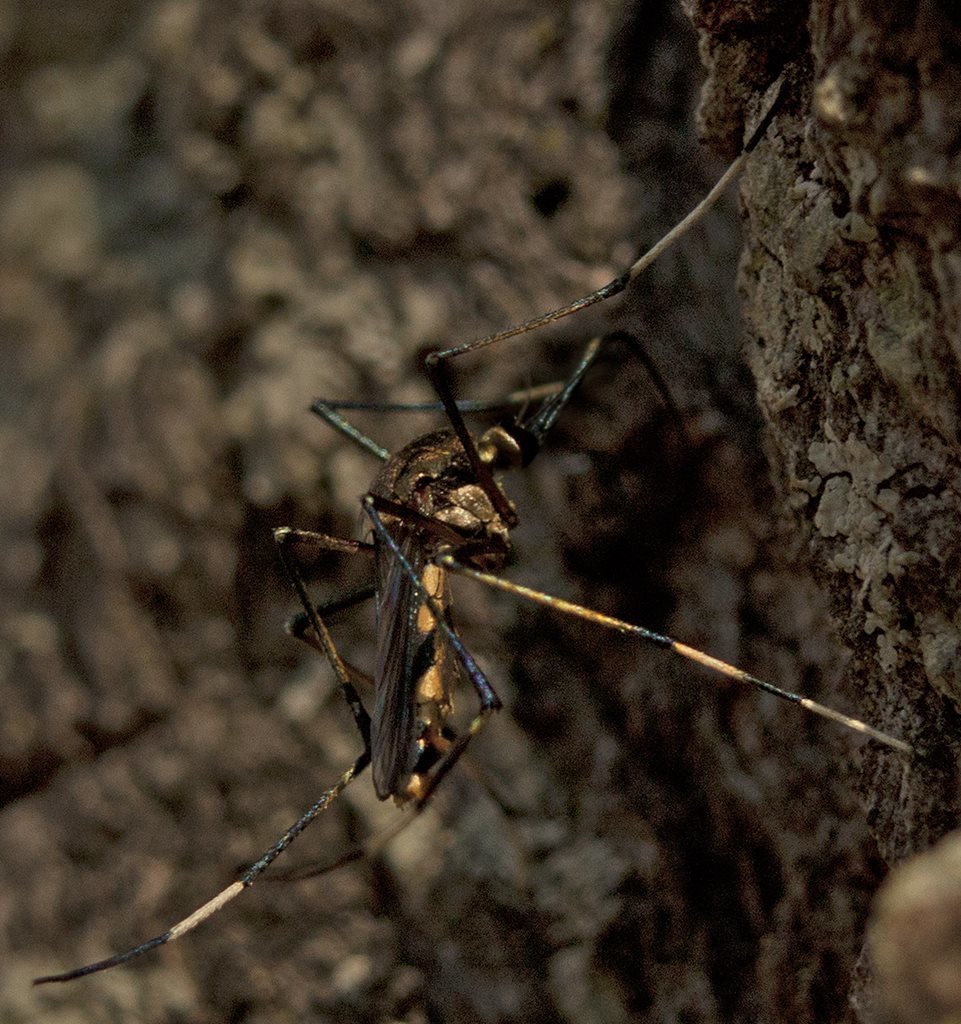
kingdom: Animalia
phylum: Arthropoda
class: Insecta
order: Diptera
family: Culicidae
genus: Toxorhynchites
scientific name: Toxorhynchites speciosus
